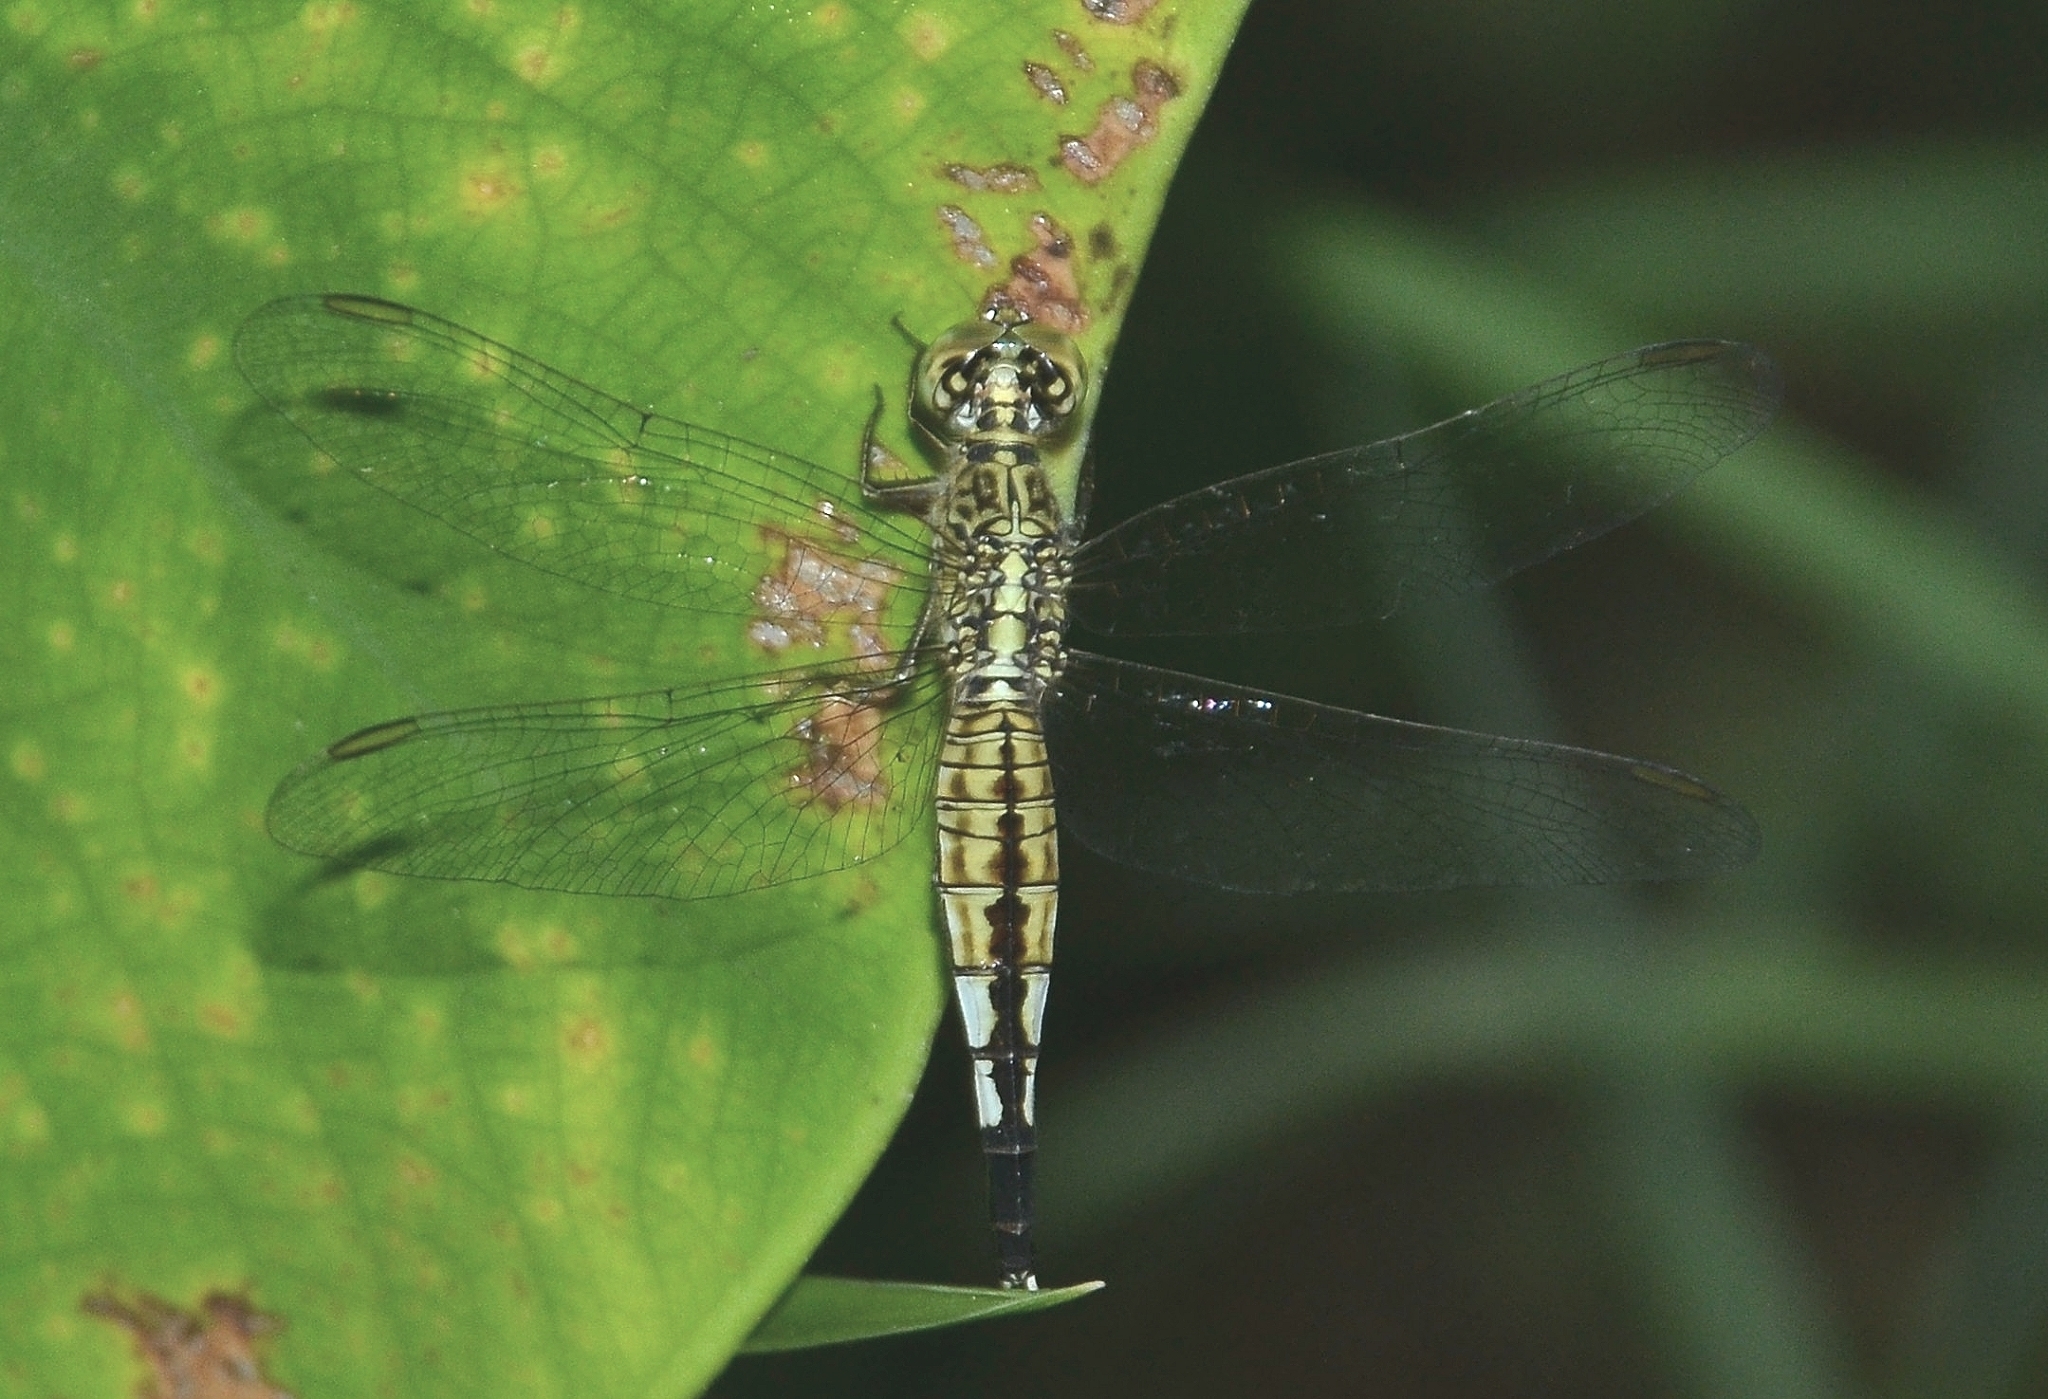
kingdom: Animalia
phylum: Arthropoda
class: Insecta
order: Odonata
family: Libellulidae
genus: Acisoma
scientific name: Acisoma panorpoides
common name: Asian pintail
